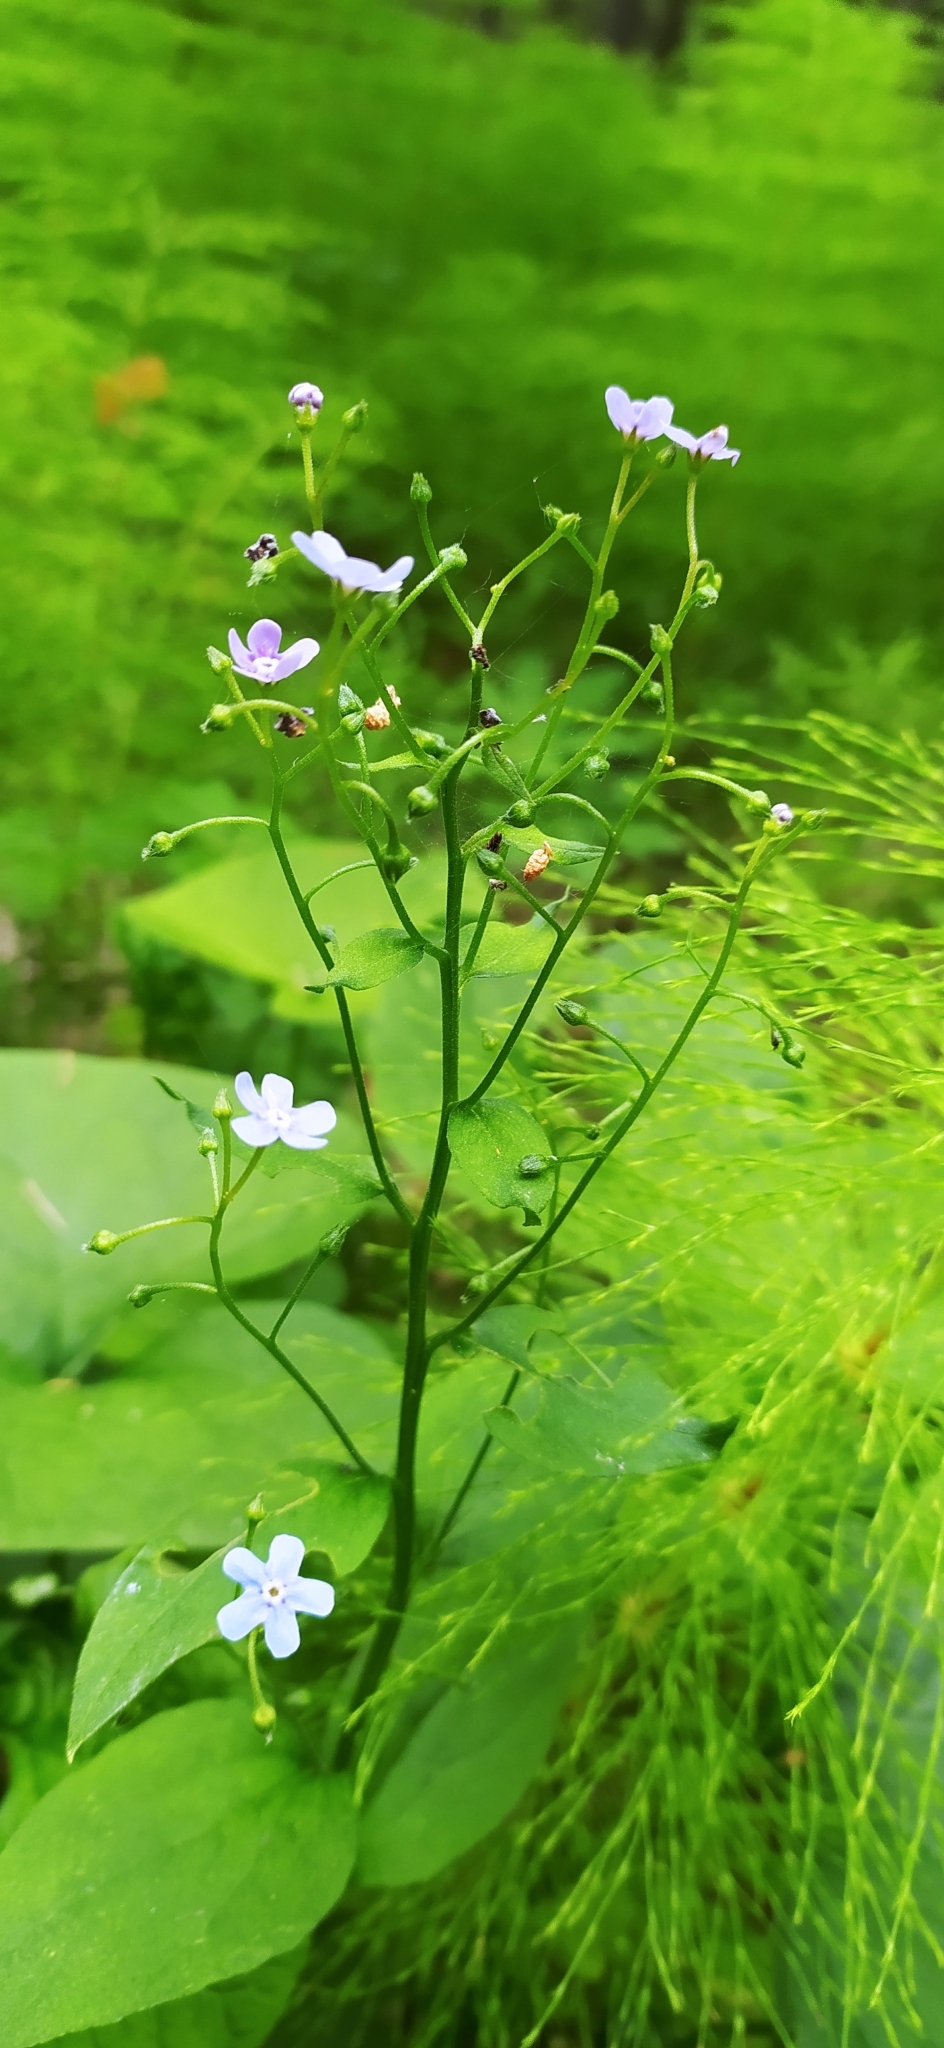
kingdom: Plantae
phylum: Tracheophyta
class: Magnoliopsida
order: Boraginales
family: Boraginaceae
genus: Brunnera
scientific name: Brunnera sibirica
